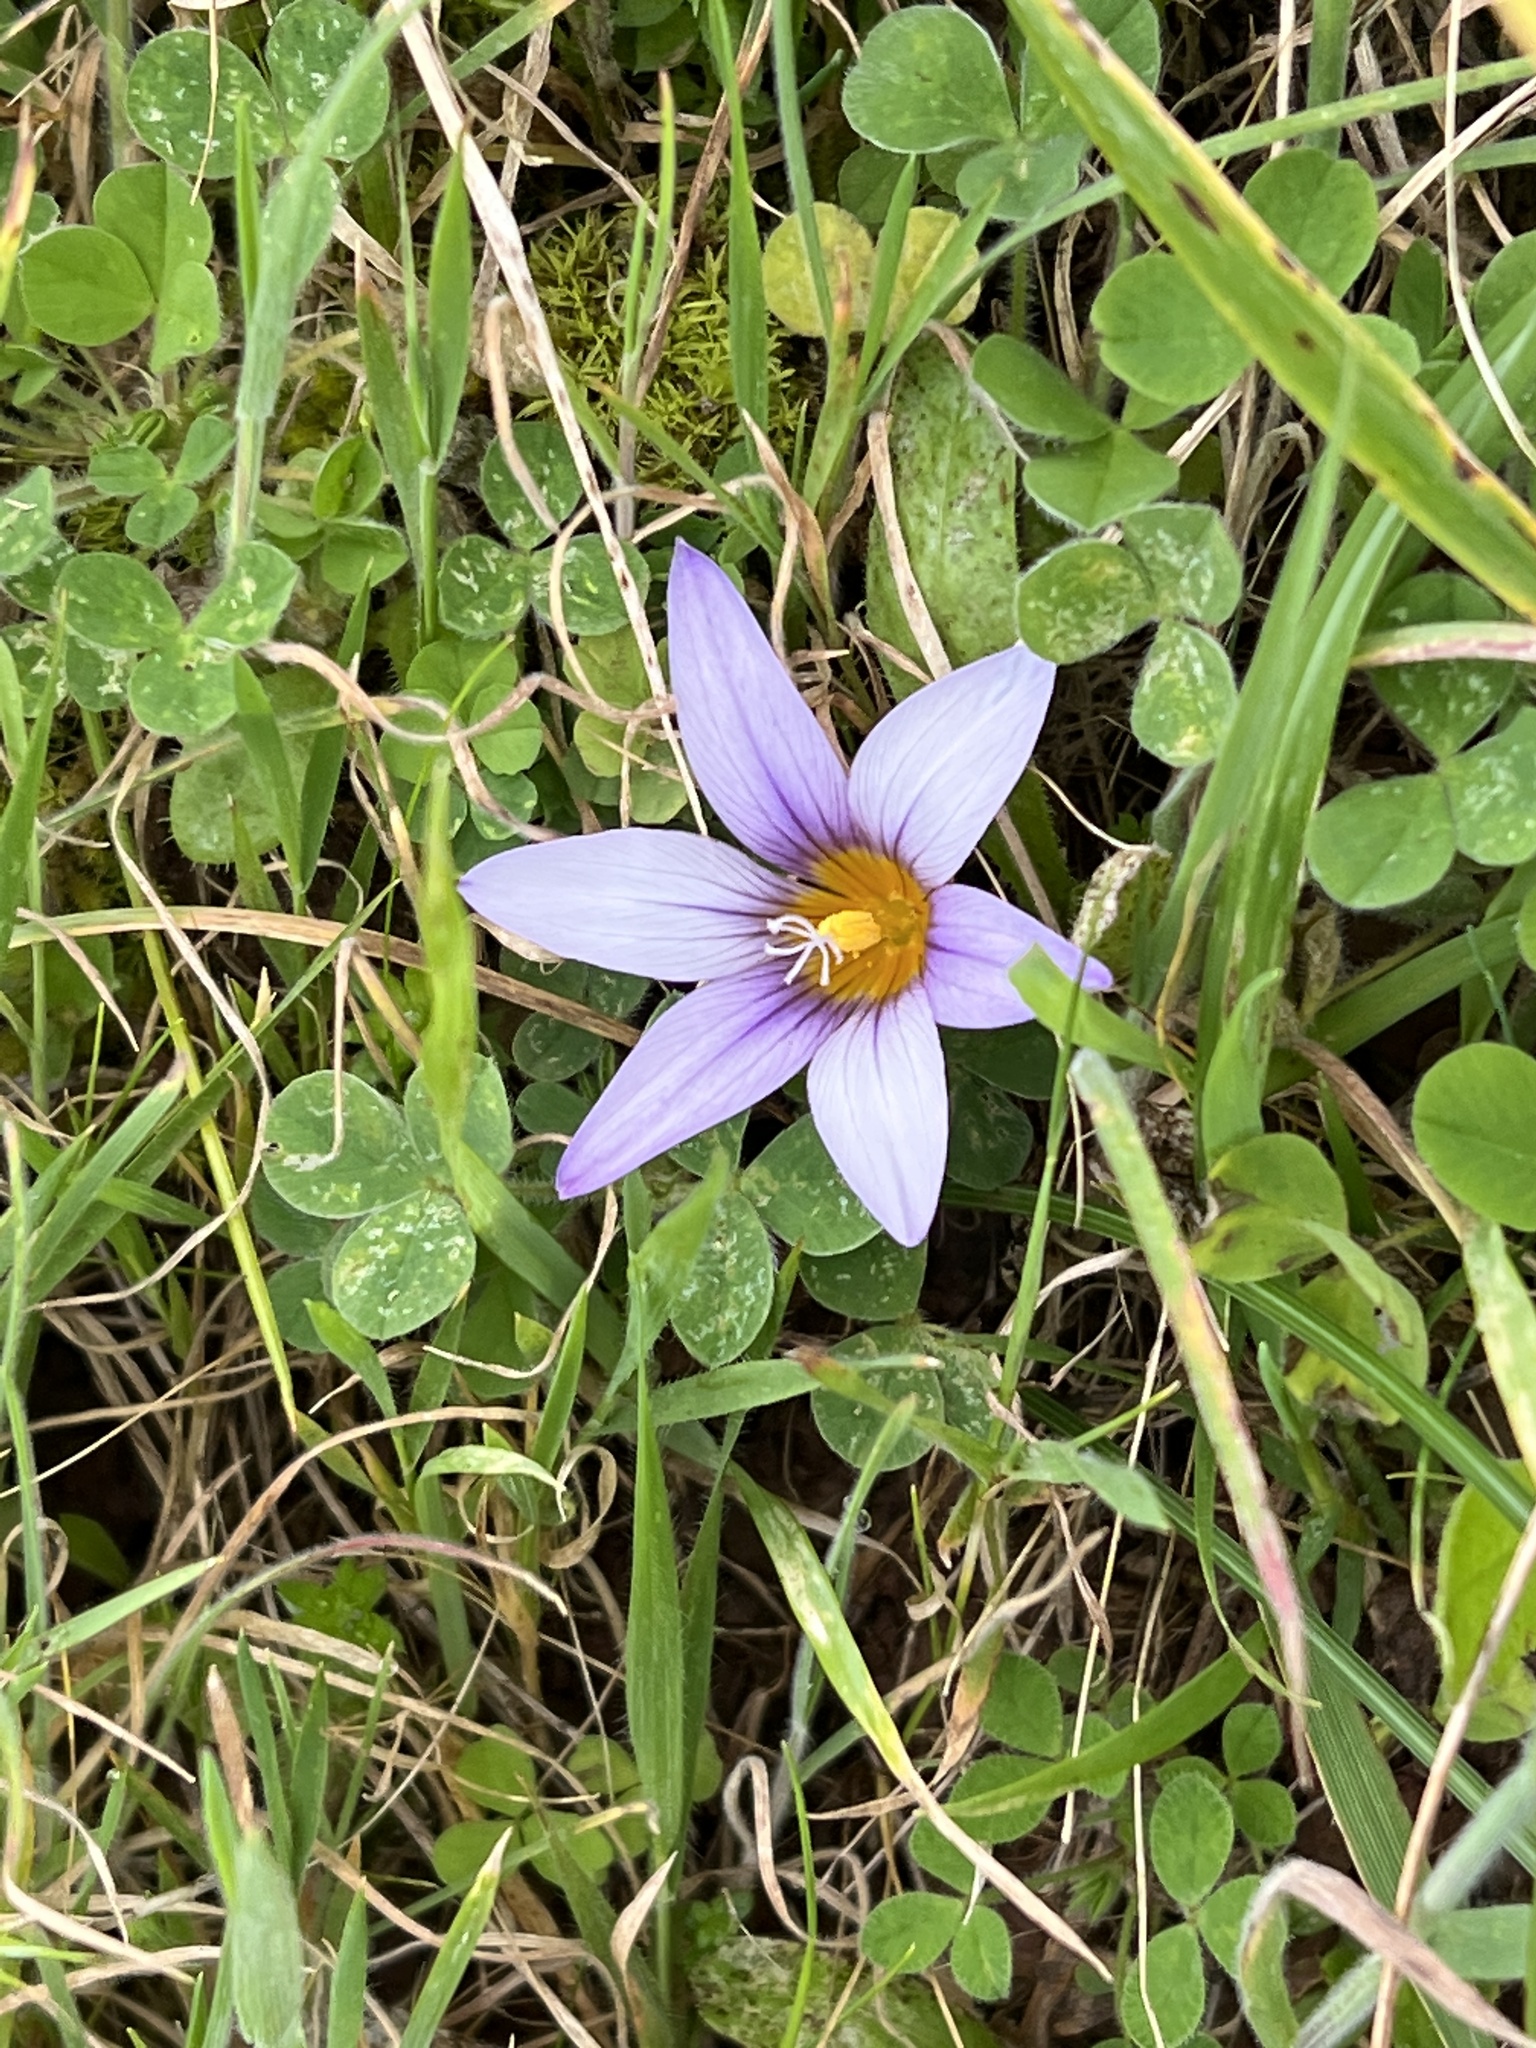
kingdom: Plantae
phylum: Tracheophyta
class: Liliopsida
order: Asparagales
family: Iridaceae
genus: Romulea
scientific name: Romulea columnae
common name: Sand-crocus
